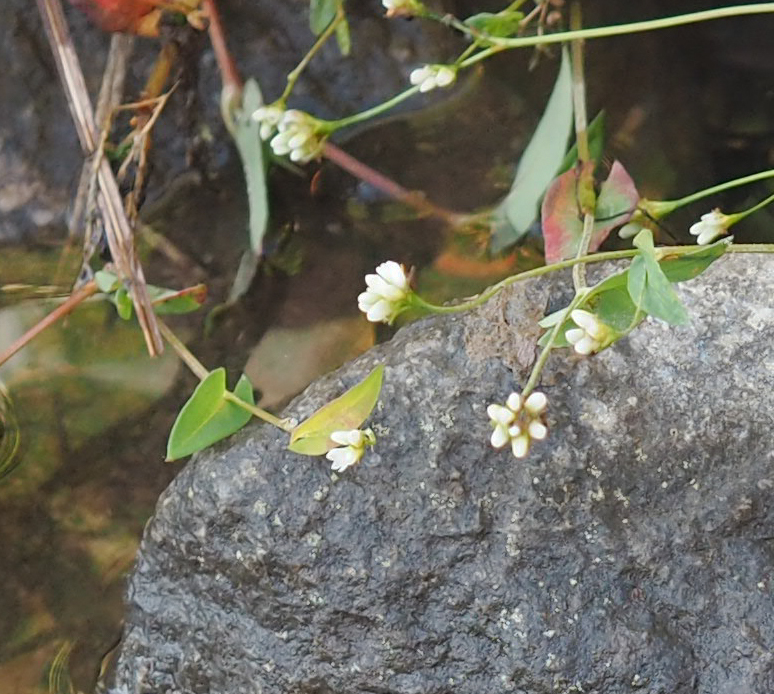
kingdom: Plantae
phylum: Tracheophyta
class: Magnoliopsida
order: Caryophyllales
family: Polygonaceae
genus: Persicaria
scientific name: Persicaria sagittata
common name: American tearthumb
